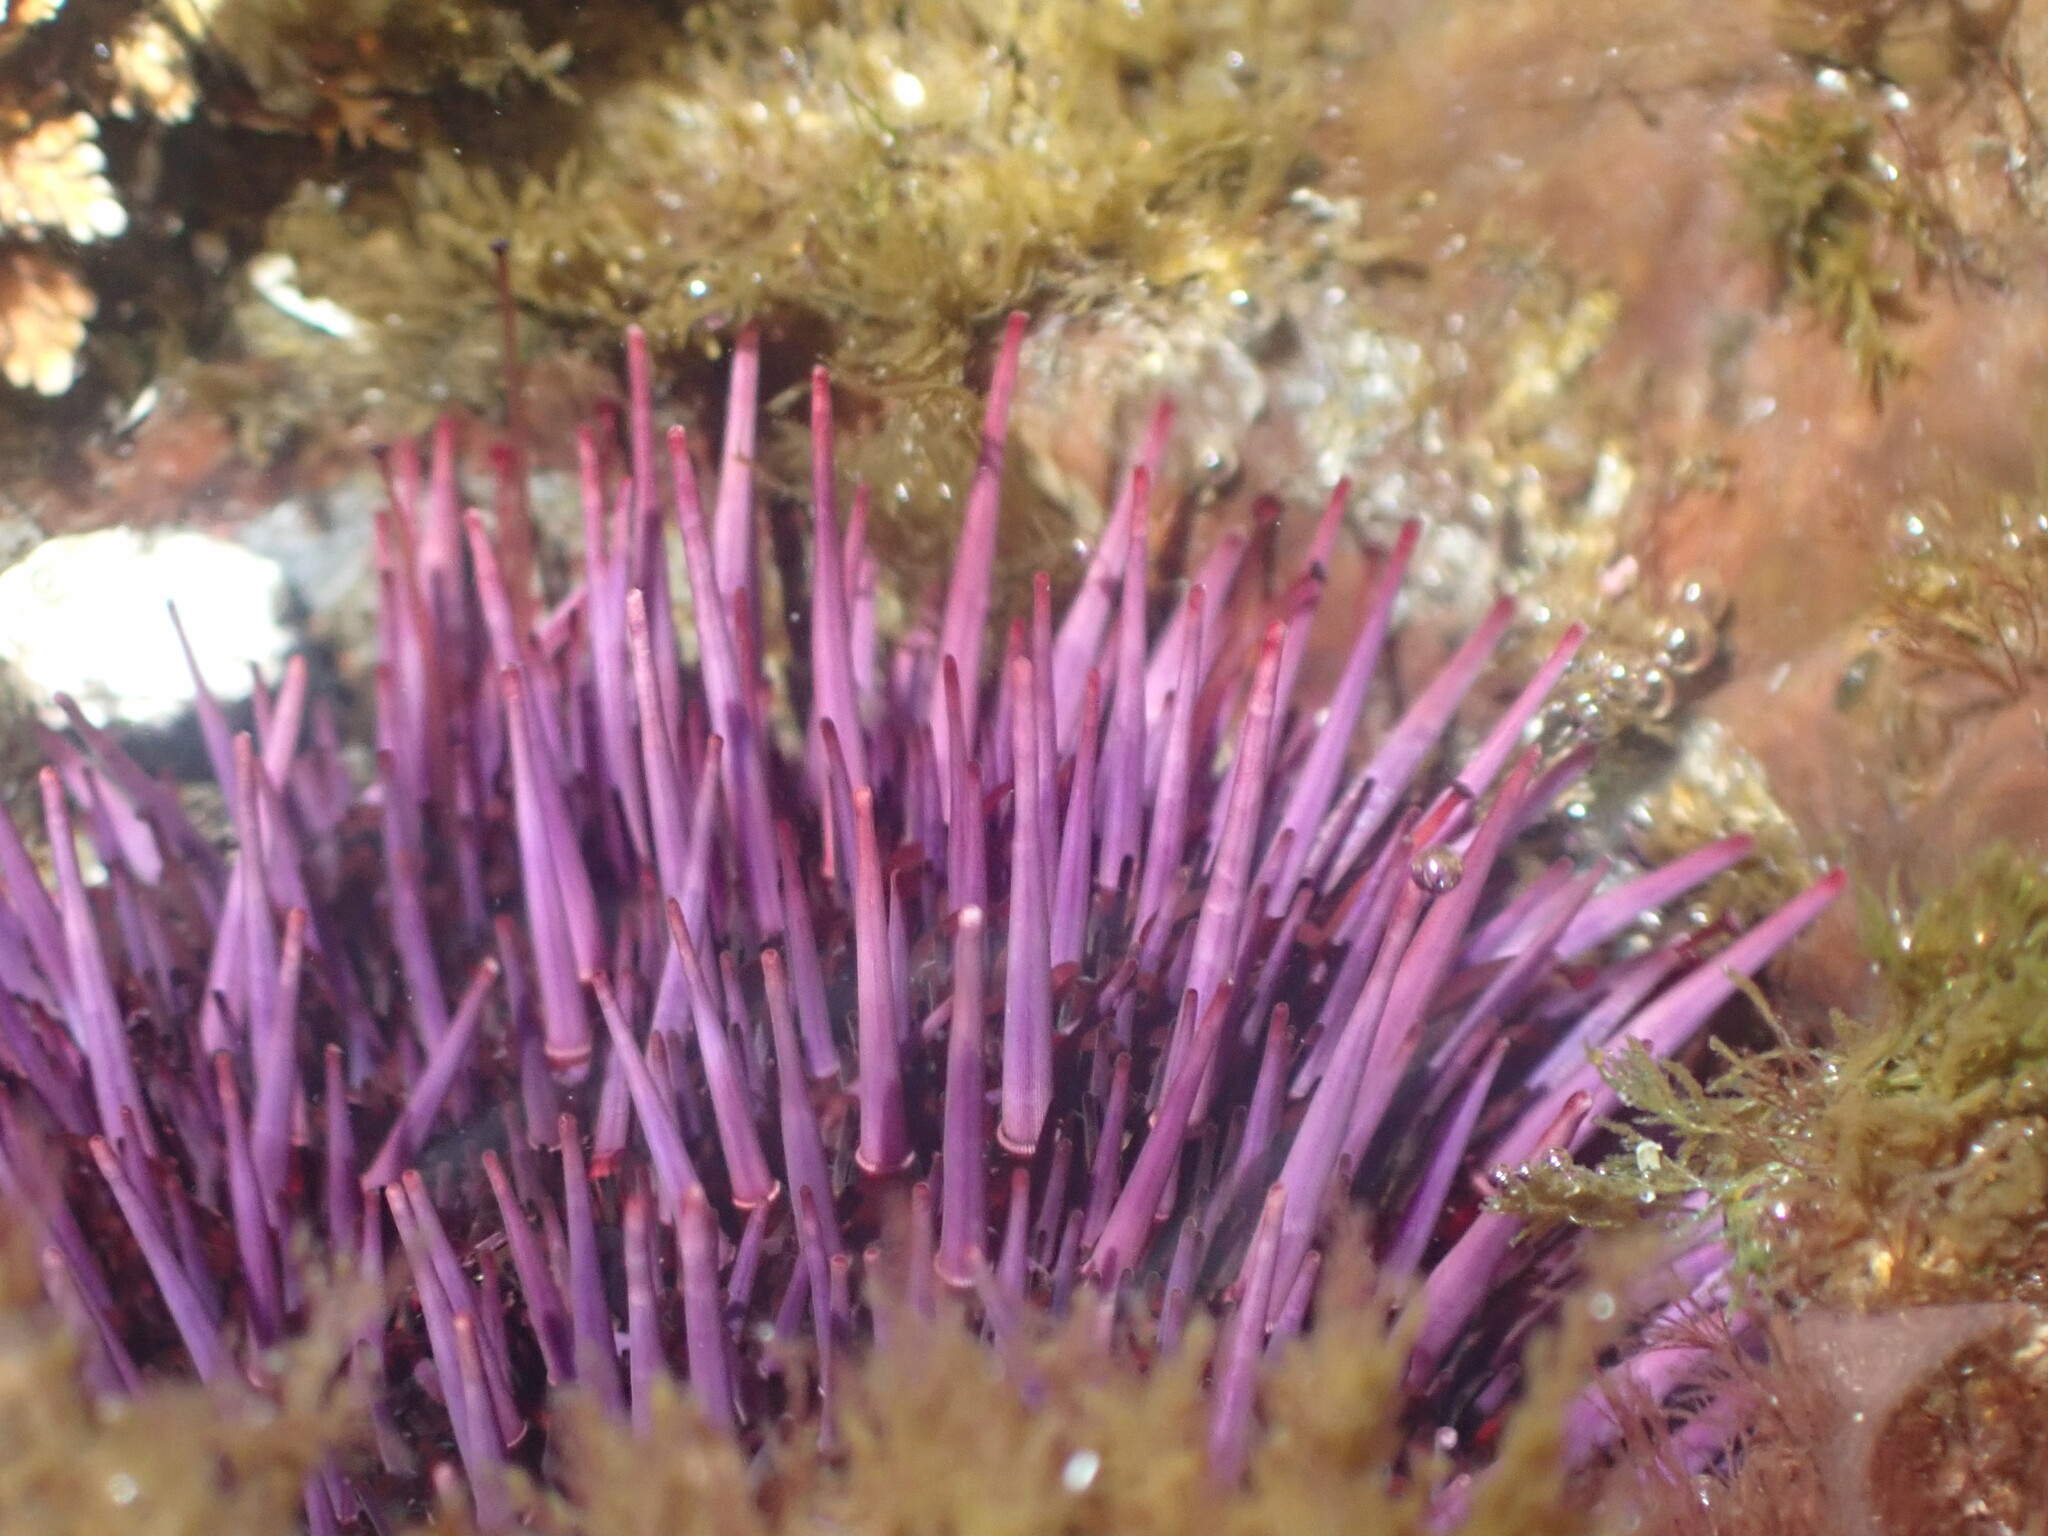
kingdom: Animalia
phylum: Echinodermata
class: Echinoidea
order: Camarodonta
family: Strongylocentrotidae
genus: Strongylocentrotus
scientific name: Strongylocentrotus purpuratus
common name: Purple sea urchin
